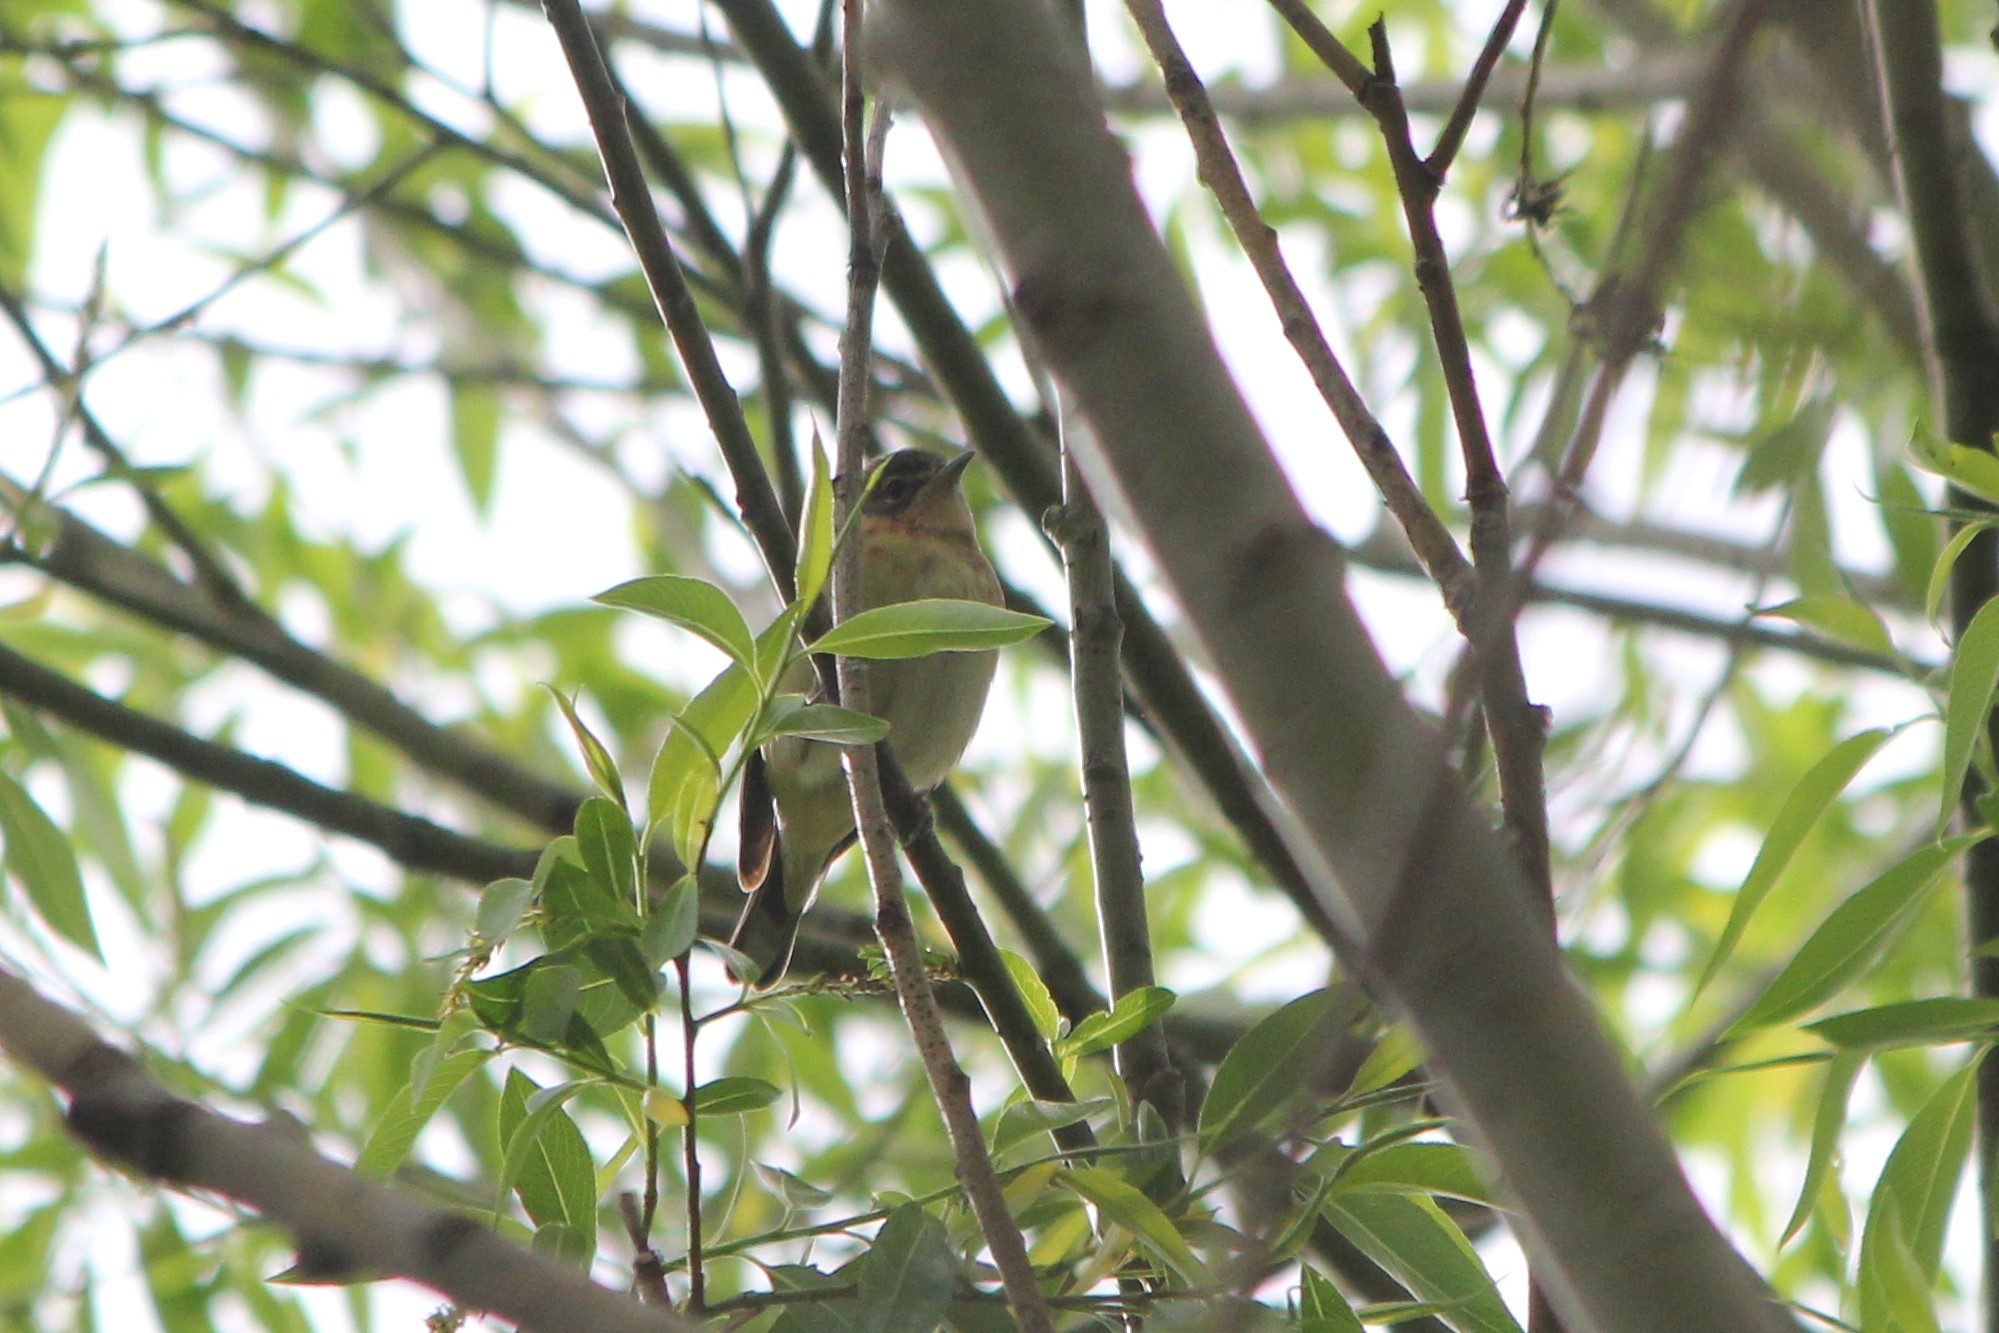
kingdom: Animalia
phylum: Chordata
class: Aves
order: Passeriformes
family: Parulidae
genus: Setophaga
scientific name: Setophaga castanea
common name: Bay-breasted warbler
